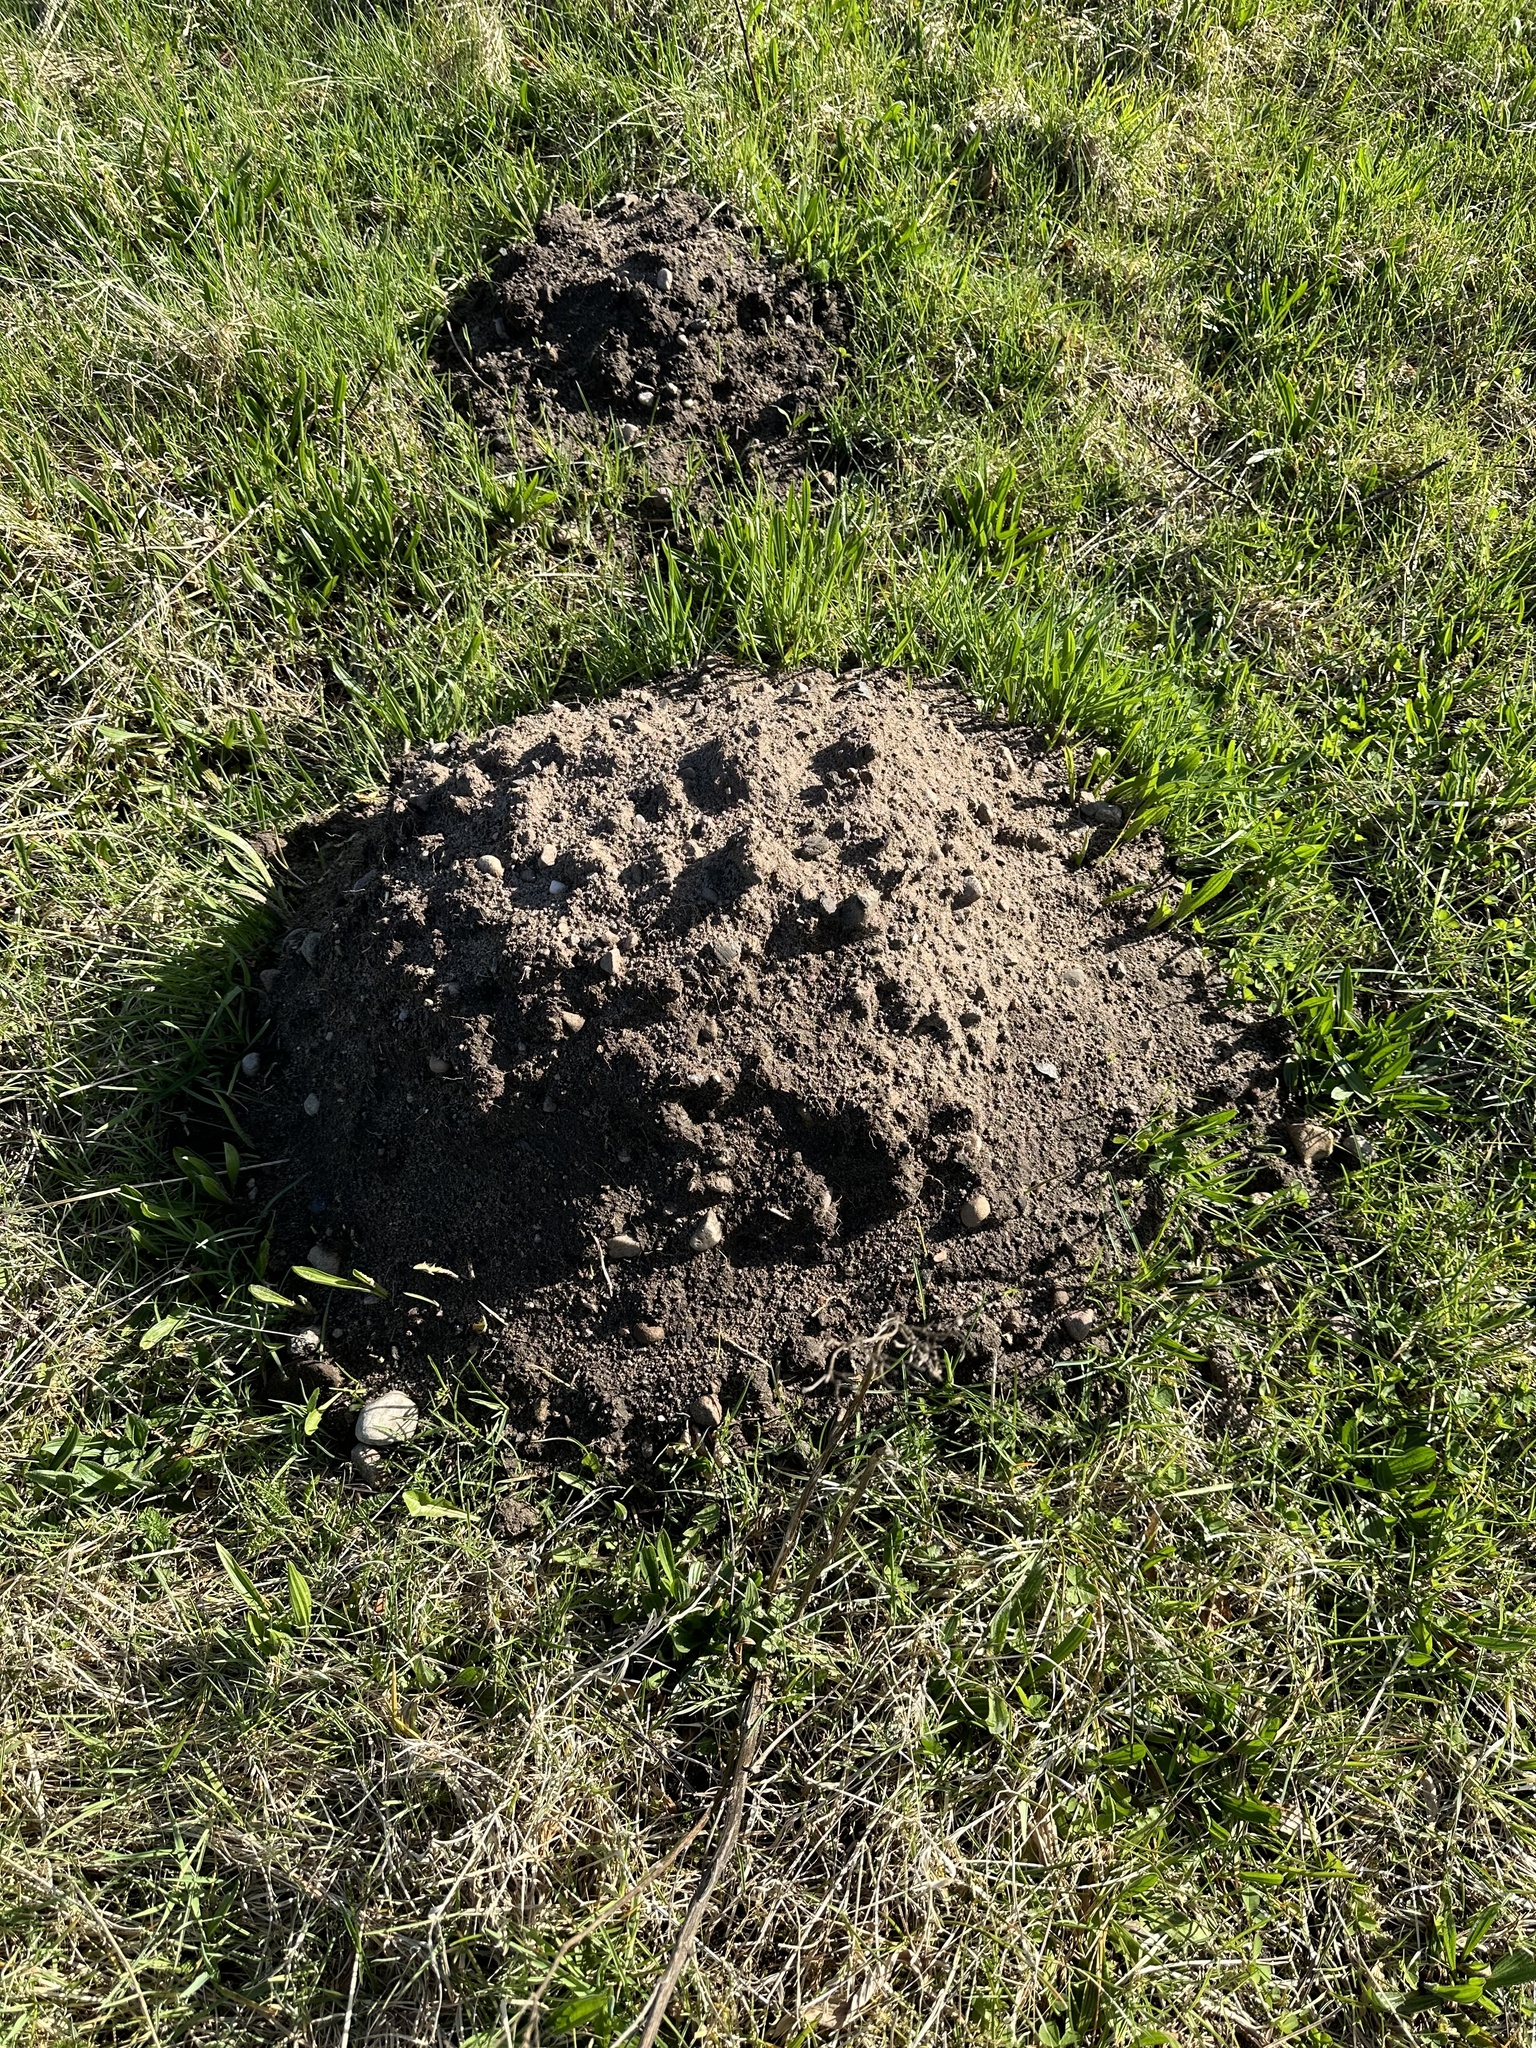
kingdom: Animalia
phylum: Chordata
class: Mammalia
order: Soricomorpha
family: Talpidae
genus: Talpa
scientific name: Talpa europaea
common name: European mole
